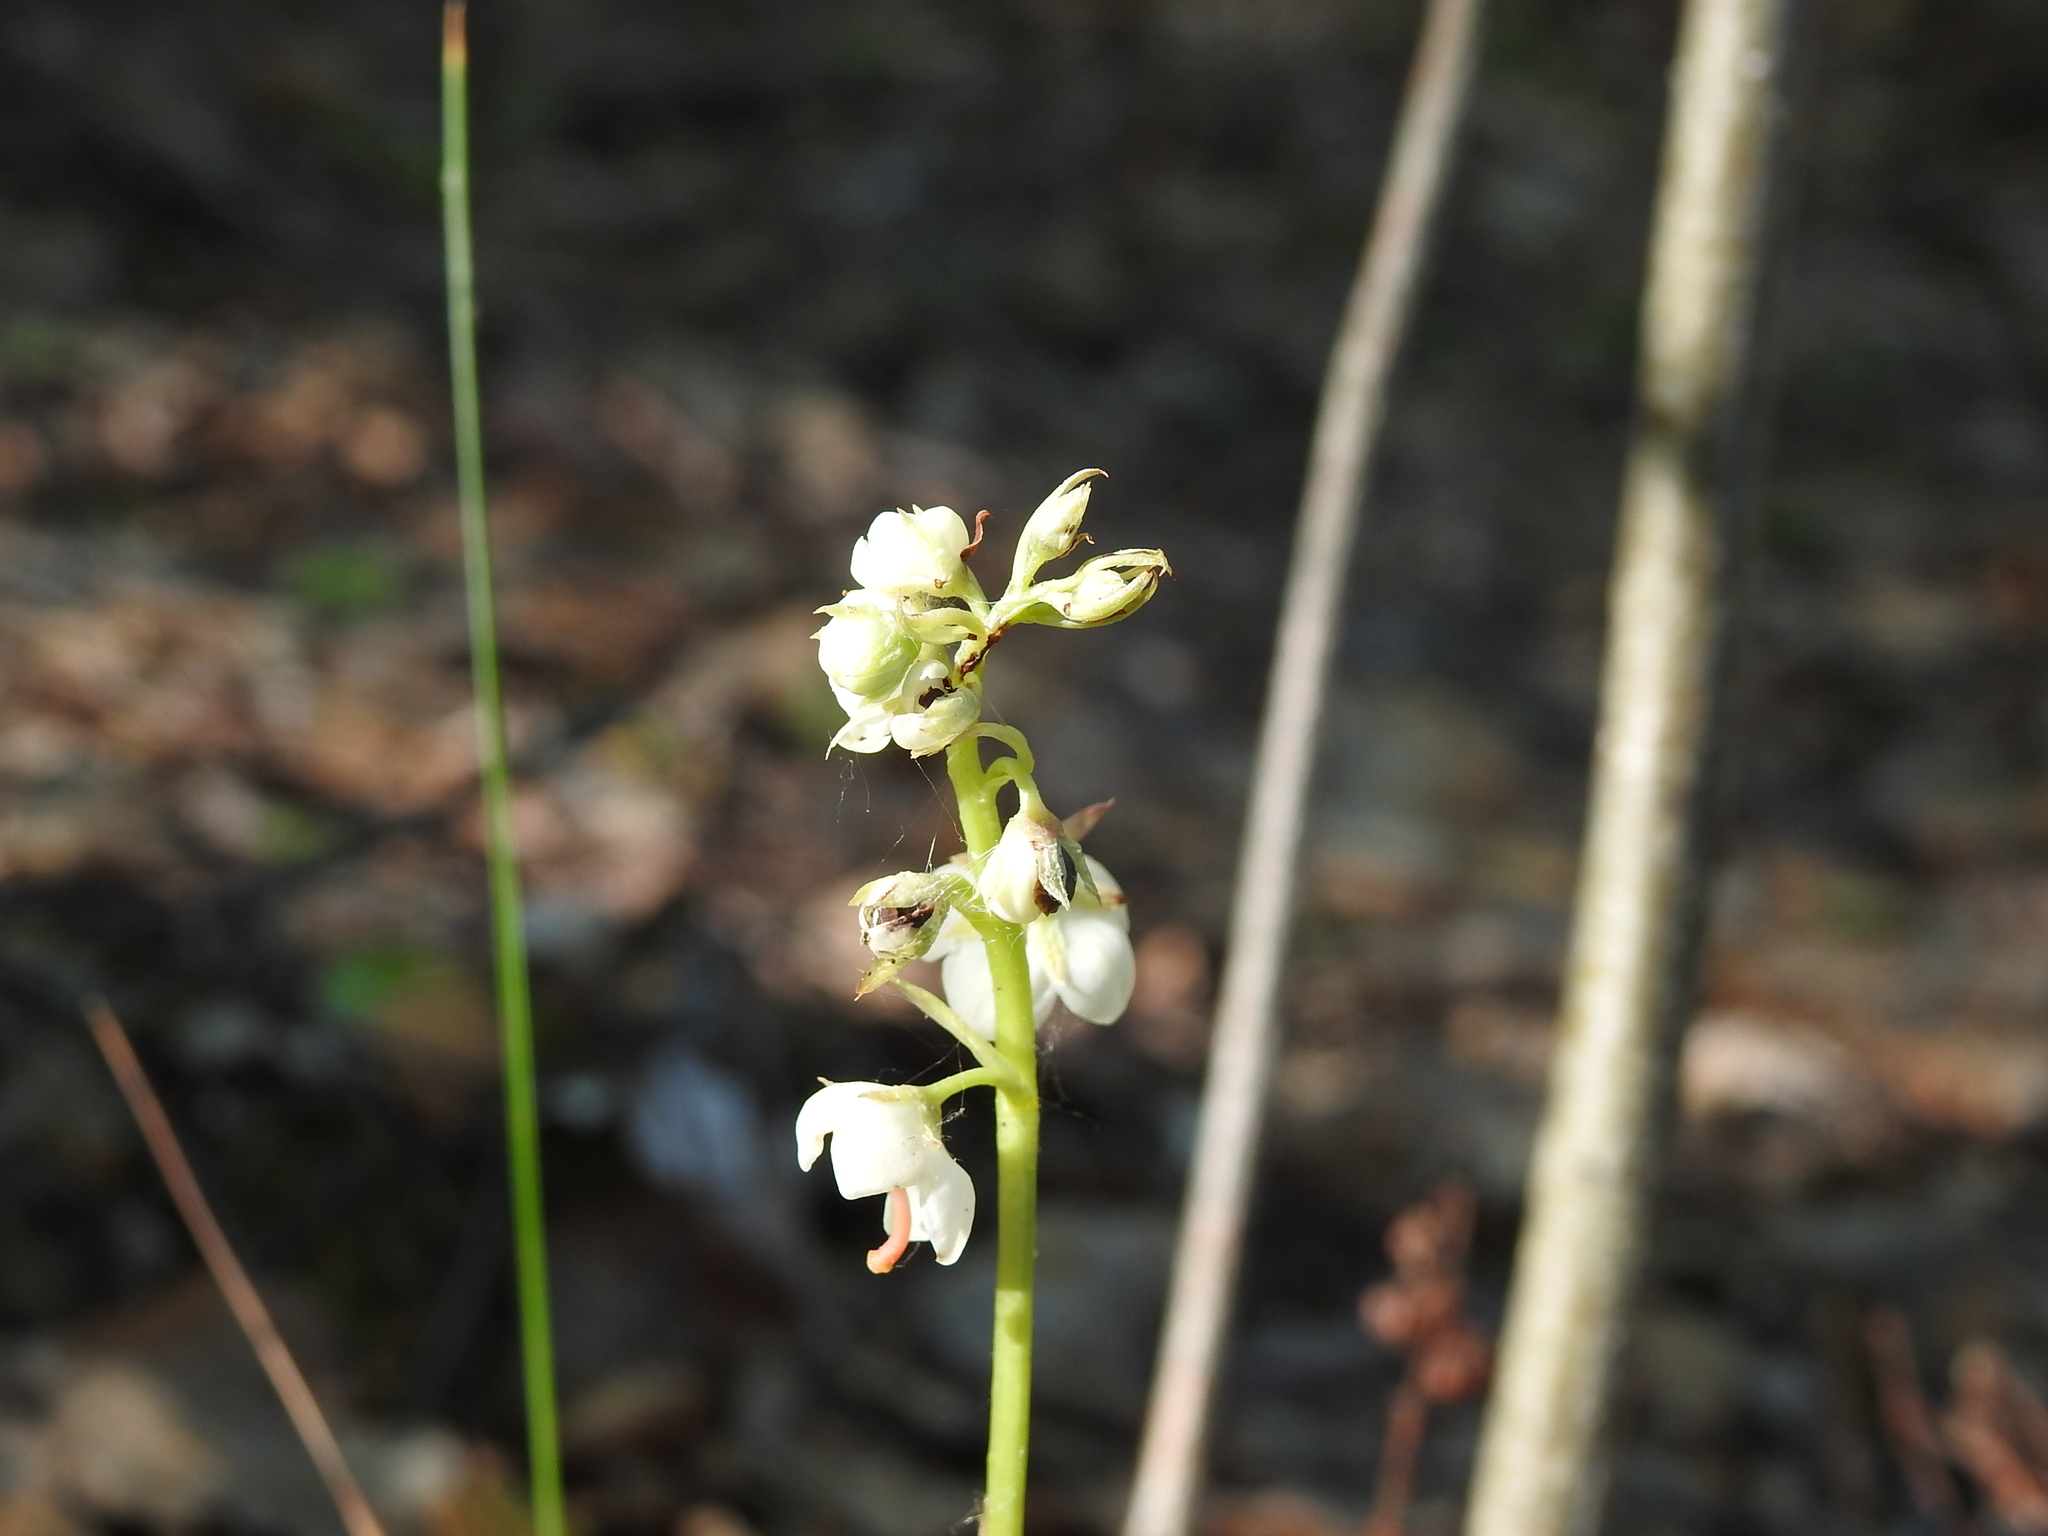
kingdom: Plantae
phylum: Tracheophyta
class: Magnoliopsida
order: Ericales
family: Ericaceae
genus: Pyrola
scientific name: Pyrola rotundifolia
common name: Round-leaved wintergreen
